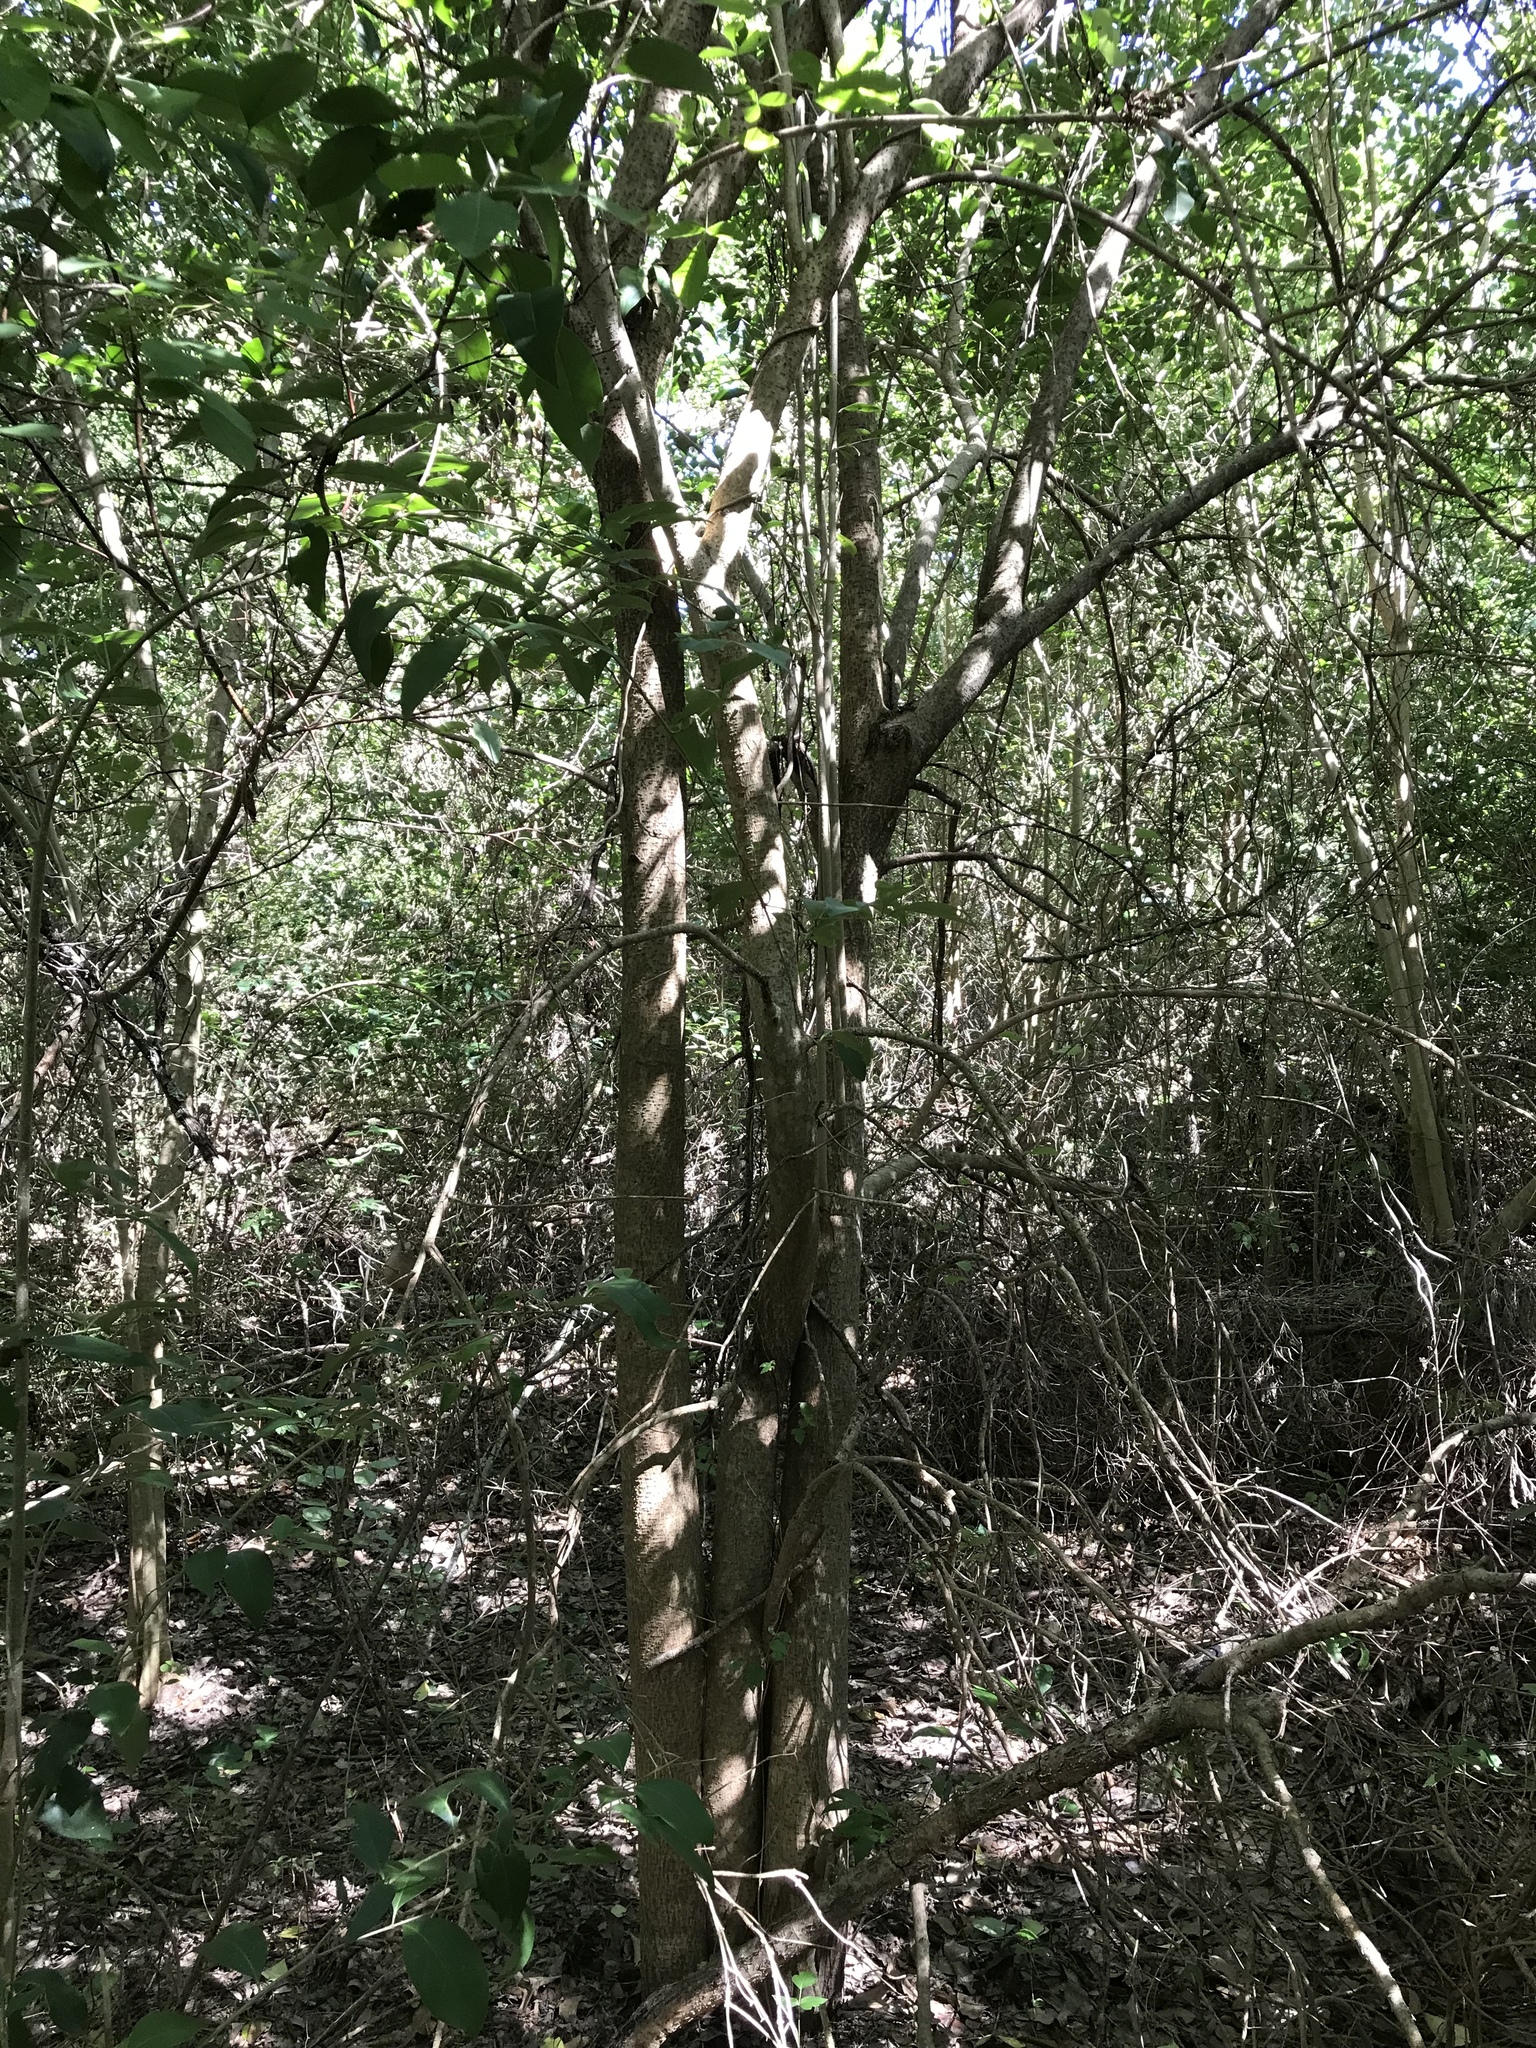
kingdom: Plantae
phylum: Tracheophyta
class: Magnoliopsida
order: Lamiales
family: Oleaceae
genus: Ligustrum
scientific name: Ligustrum lucidum
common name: Glossy privet
